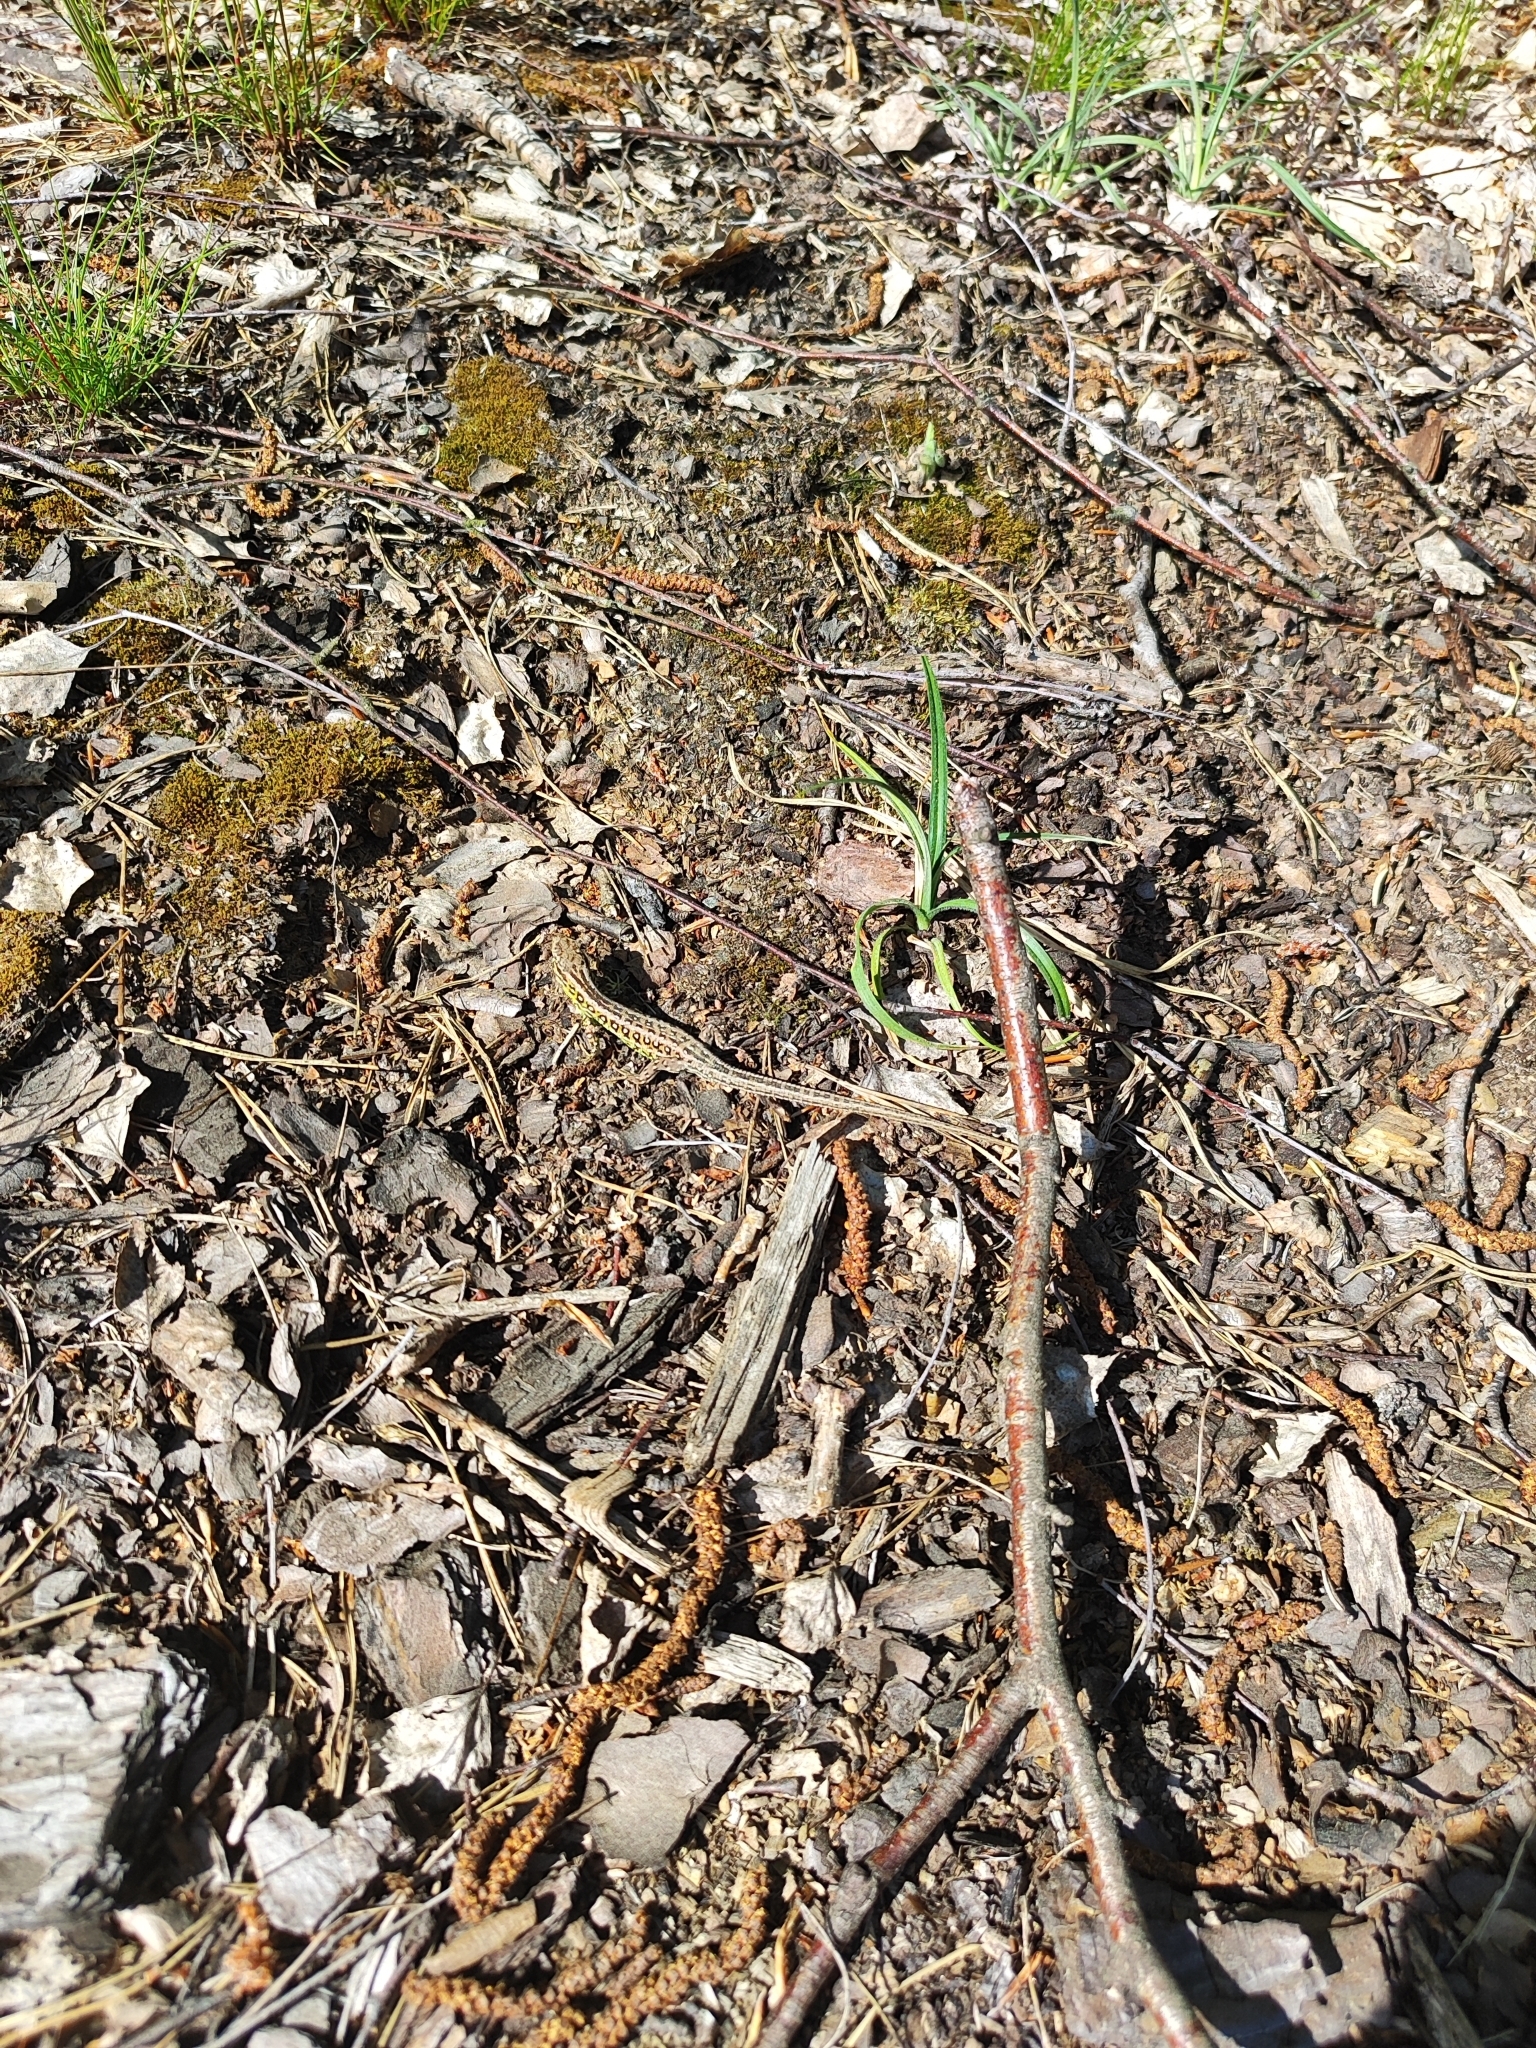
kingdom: Animalia
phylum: Chordata
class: Squamata
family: Lacertidae
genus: Lacerta
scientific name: Lacerta agilis
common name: Sand lizard
